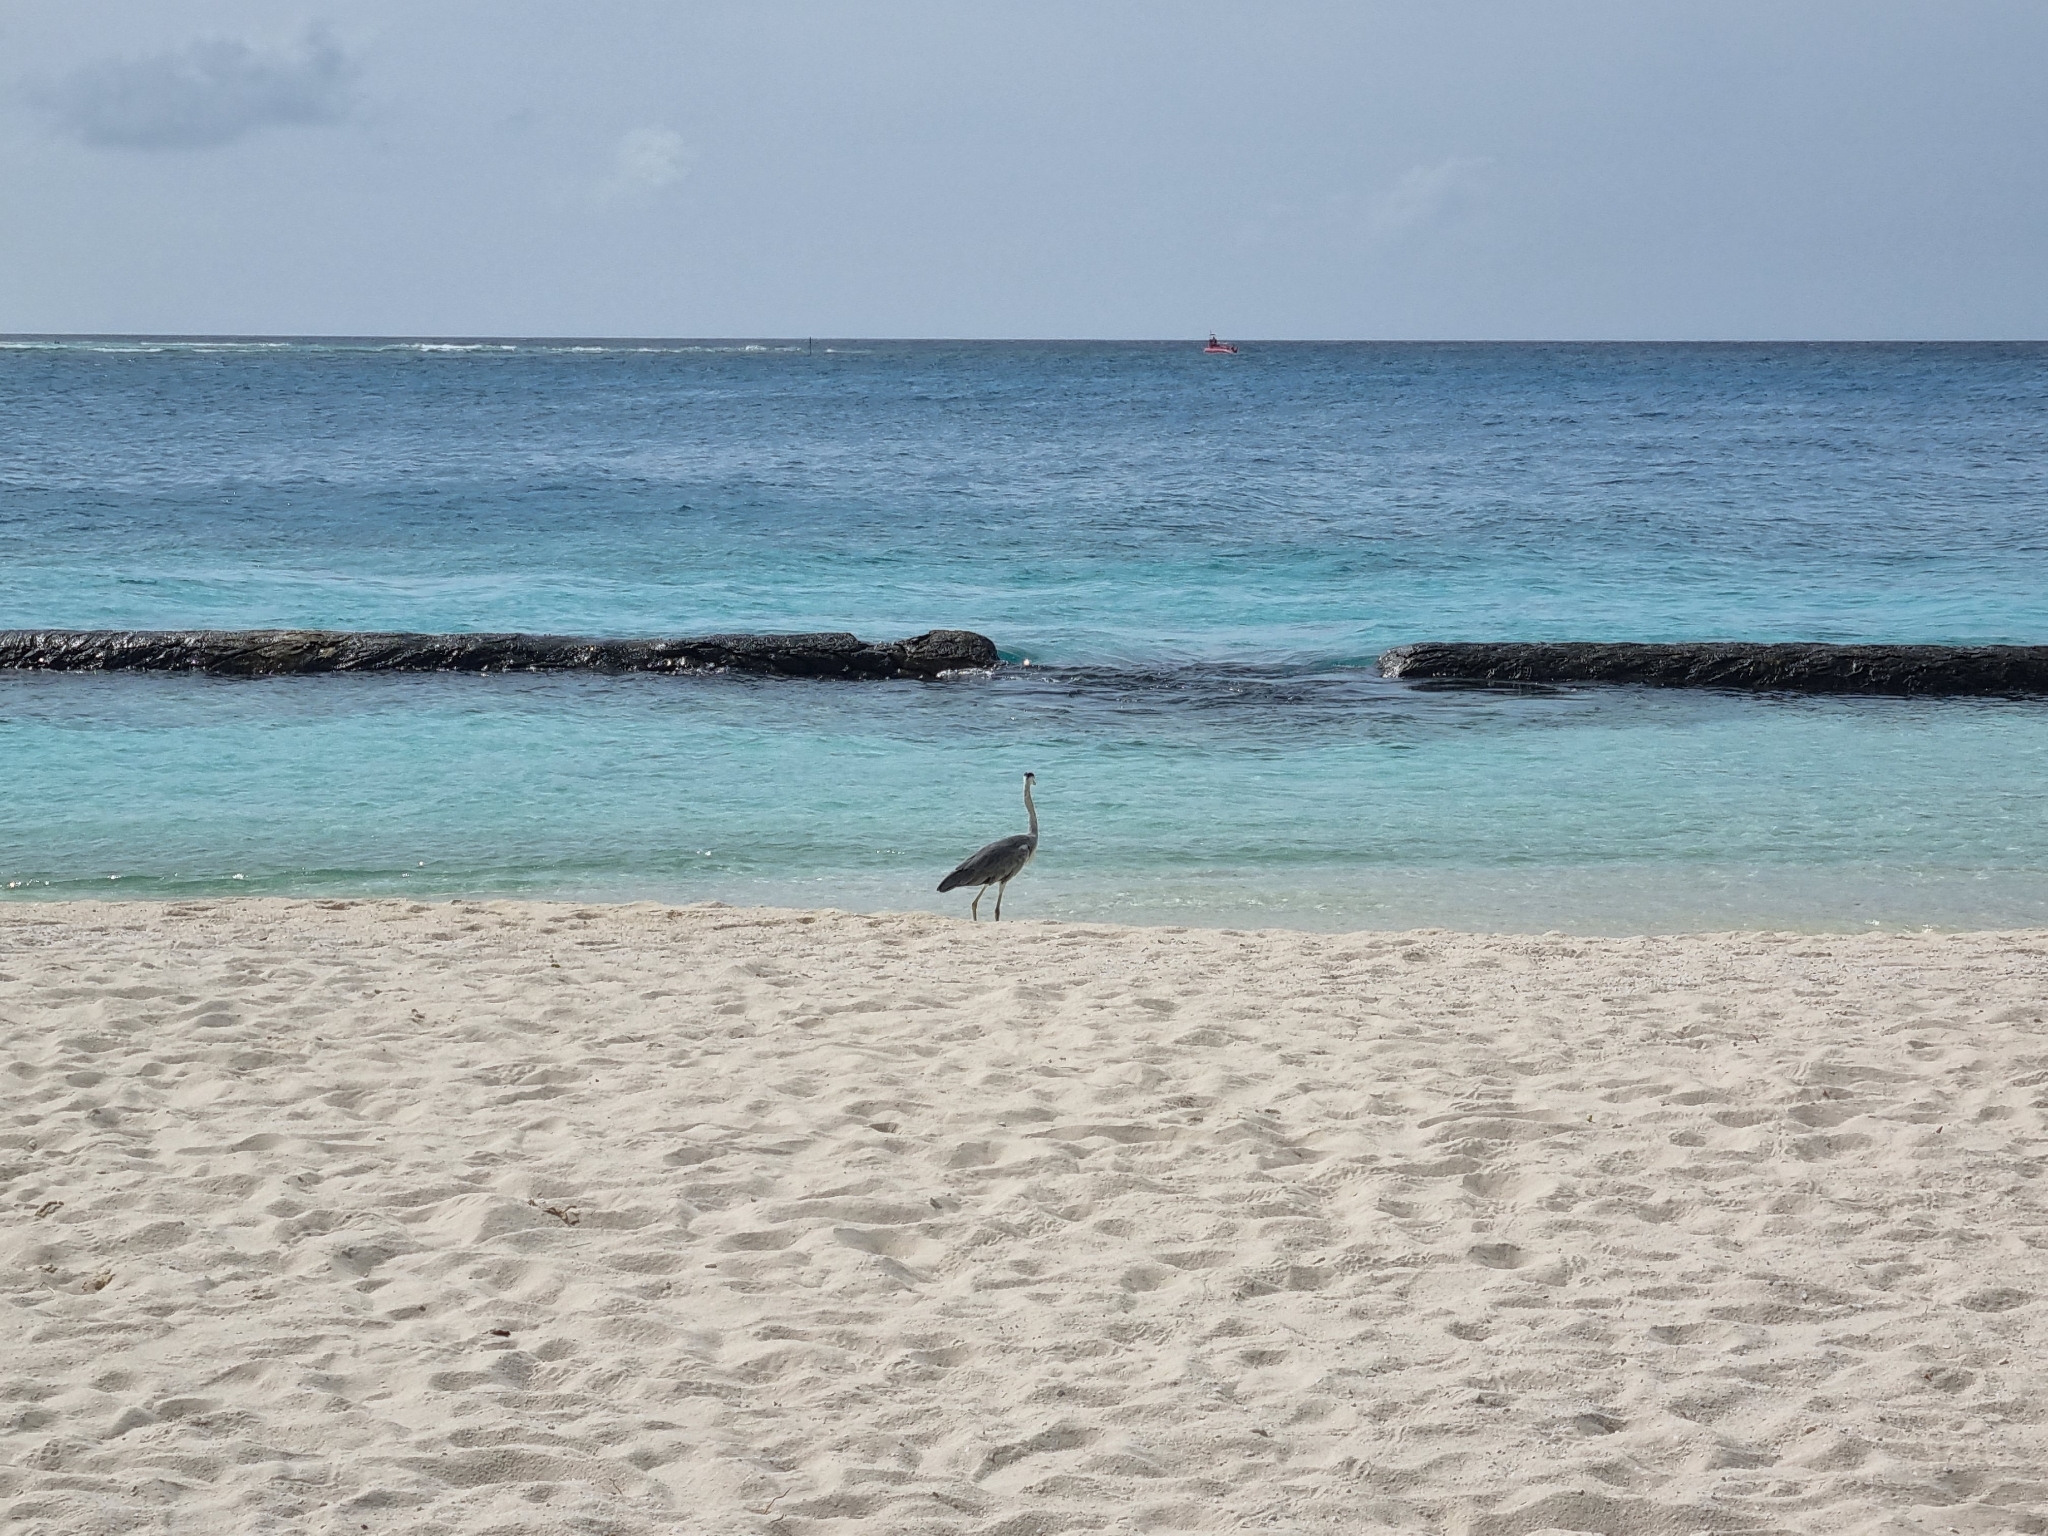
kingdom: Animalia
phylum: Chordata
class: Aves
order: Pelecaniformes
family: Ardeidae
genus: Ardea
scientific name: Ardea cinerea
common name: Grey heron
